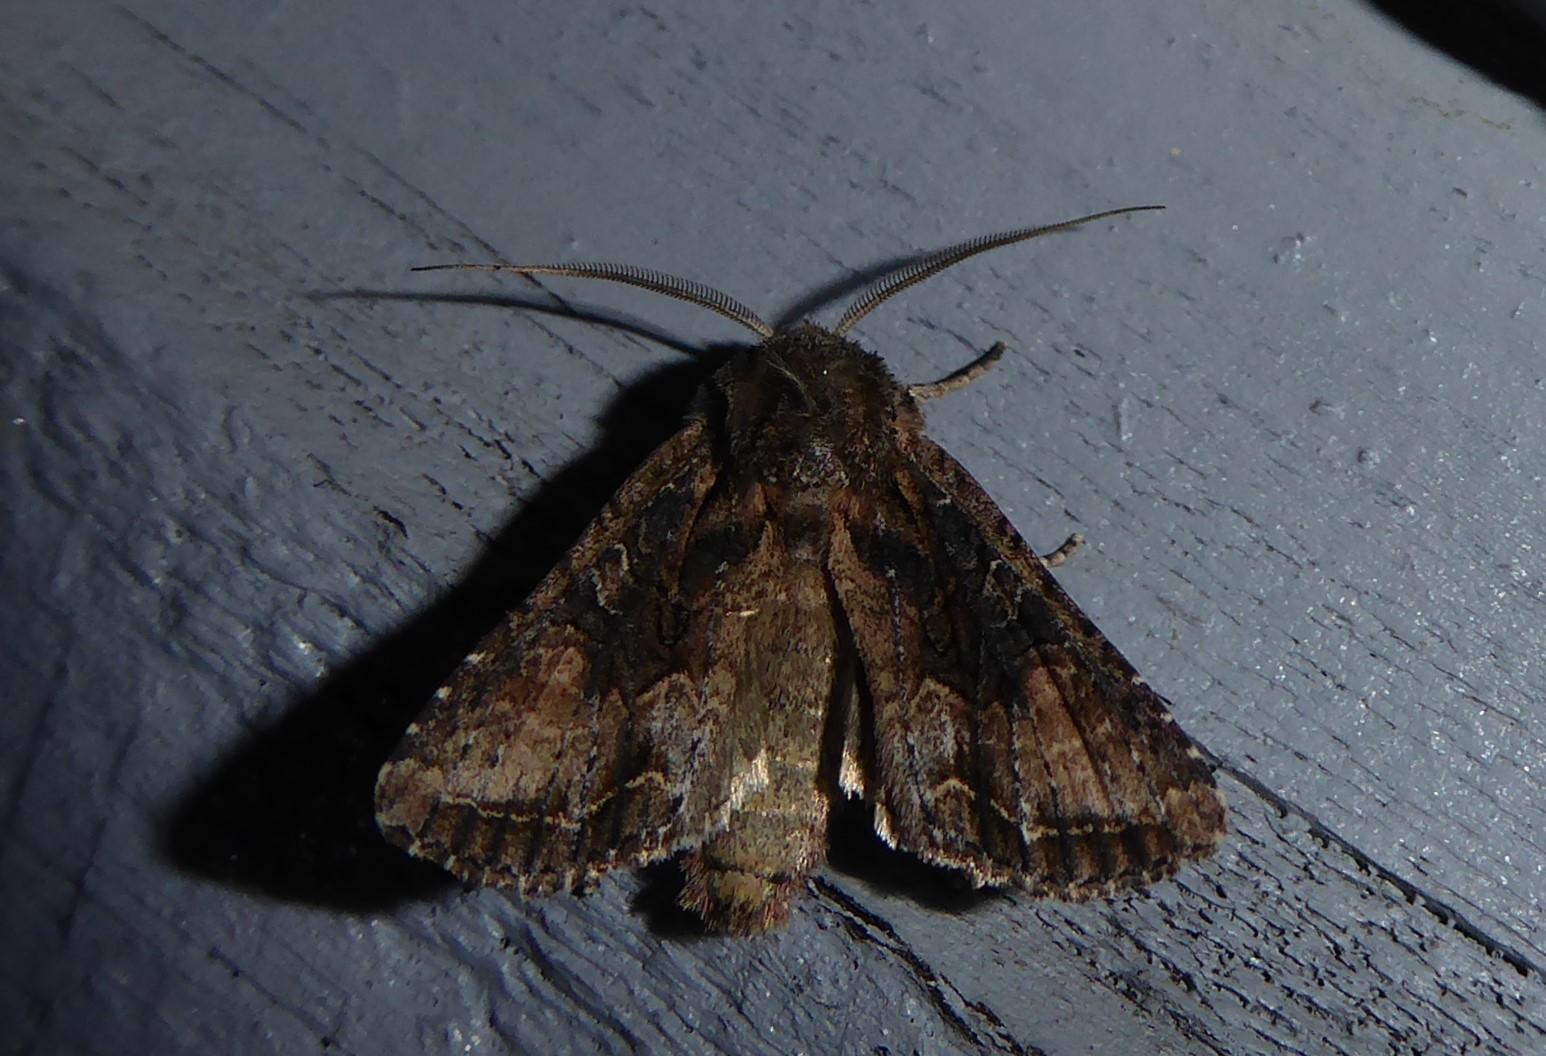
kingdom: Animalia
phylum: Arthropoda
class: Insecta
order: Lepidoptera
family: Noctuidae
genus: Ichneutica
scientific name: Ichneutica mutans
